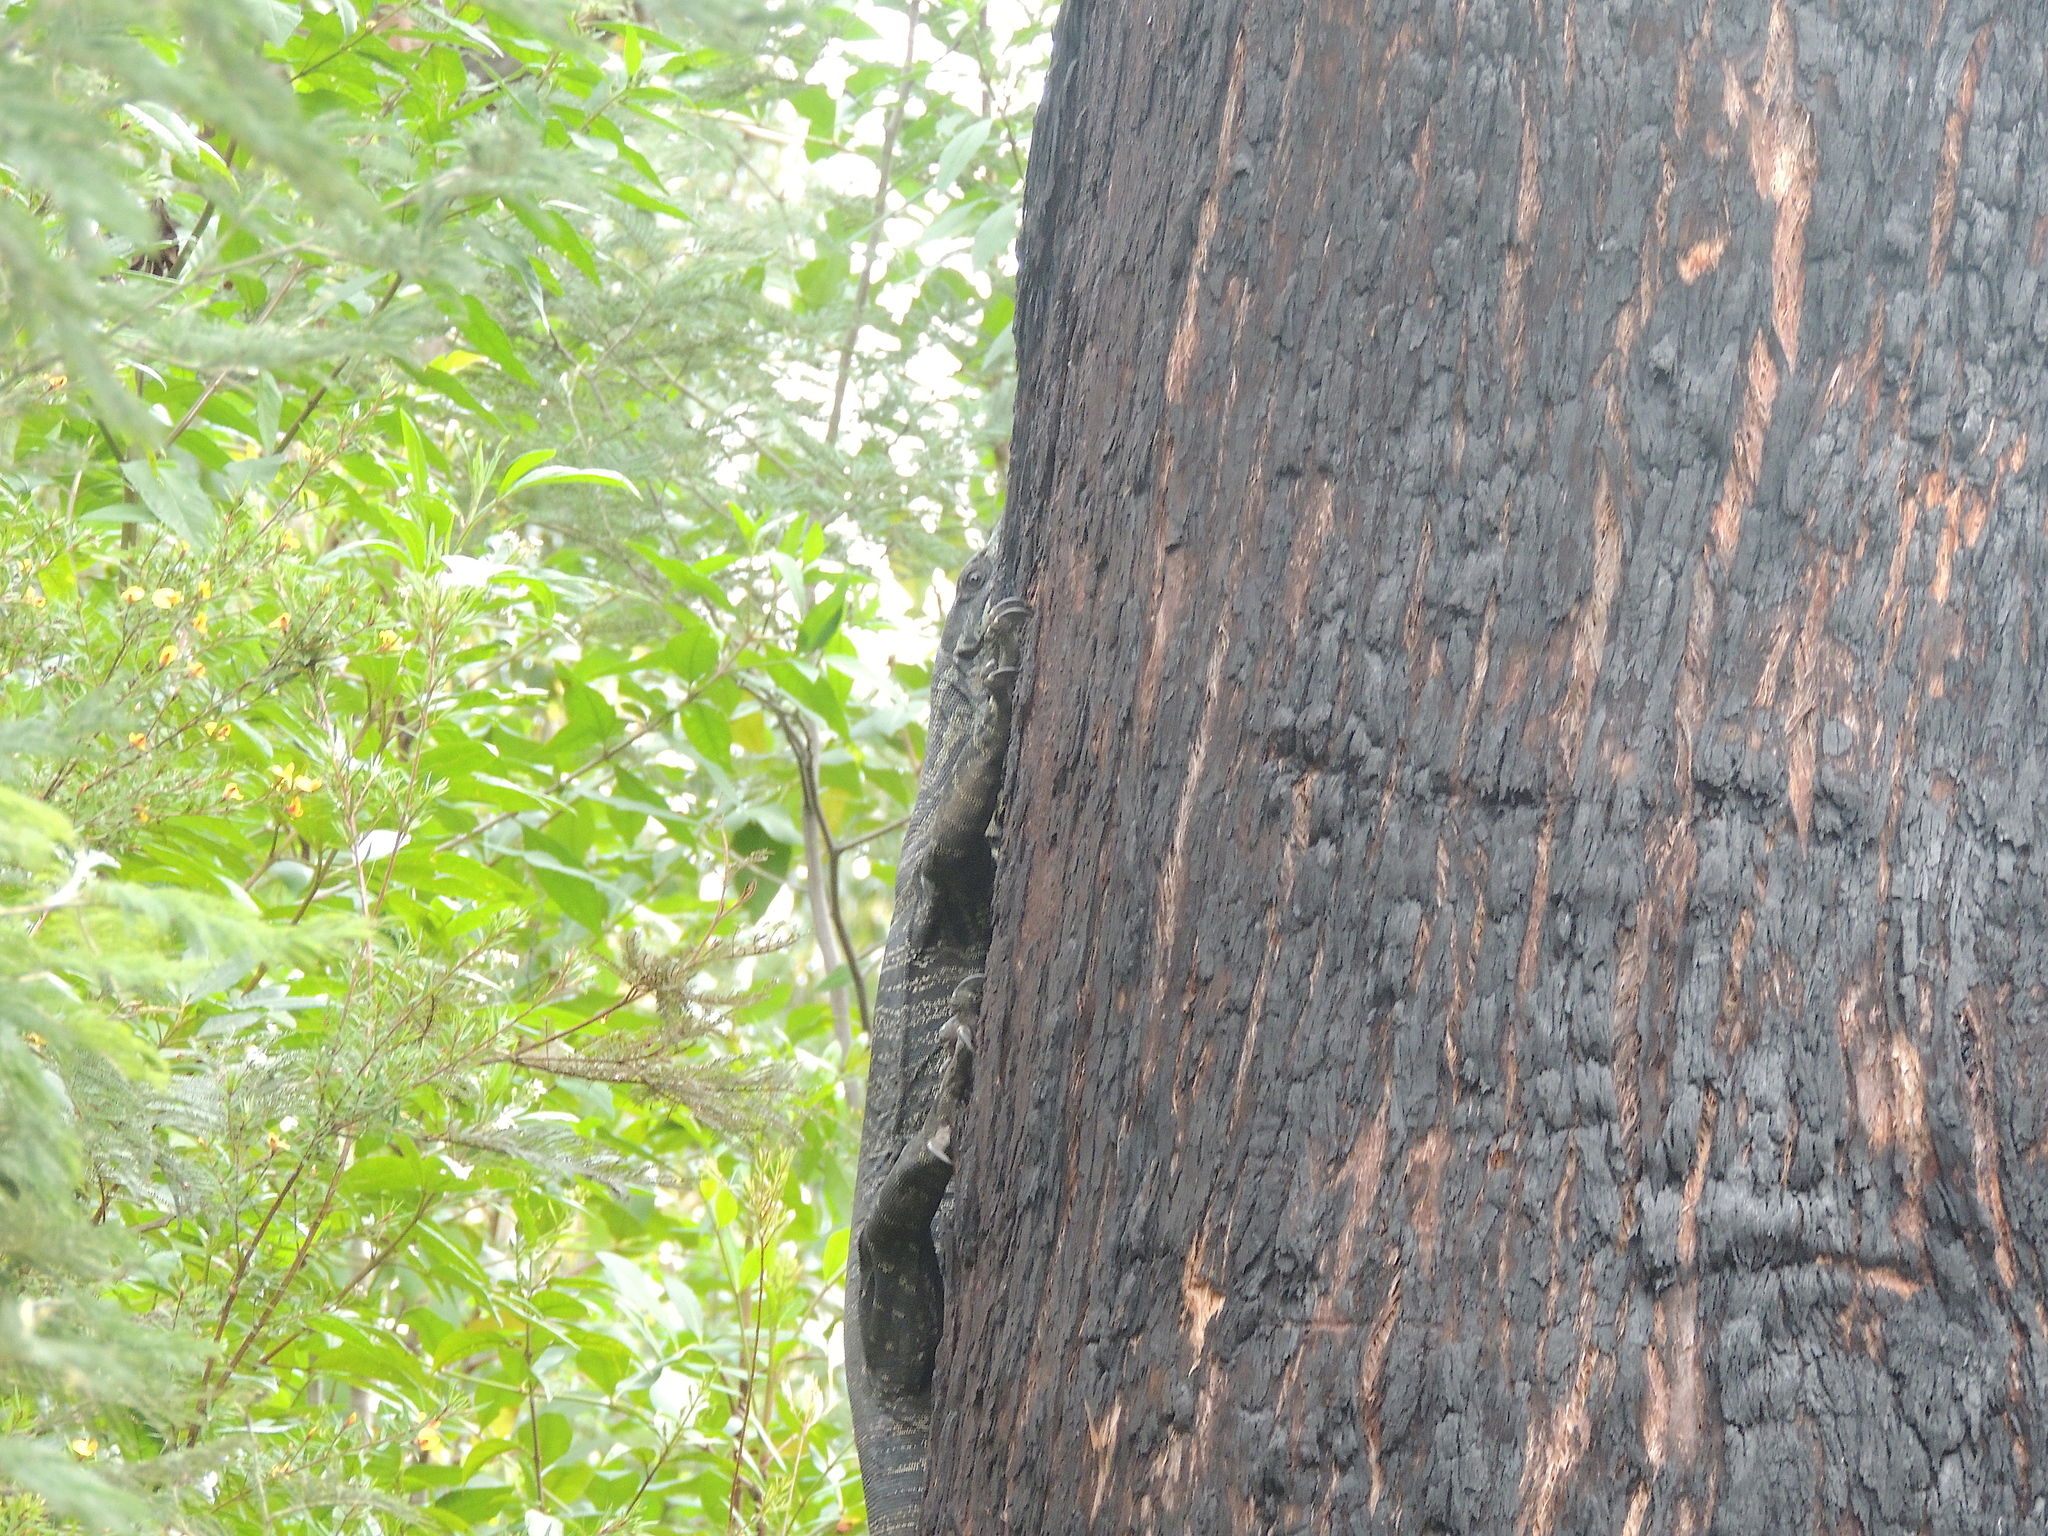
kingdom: Animalia
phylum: Chordata
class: Squamata
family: Varanidae
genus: Varanus
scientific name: Varanus varius
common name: Lace monitor
